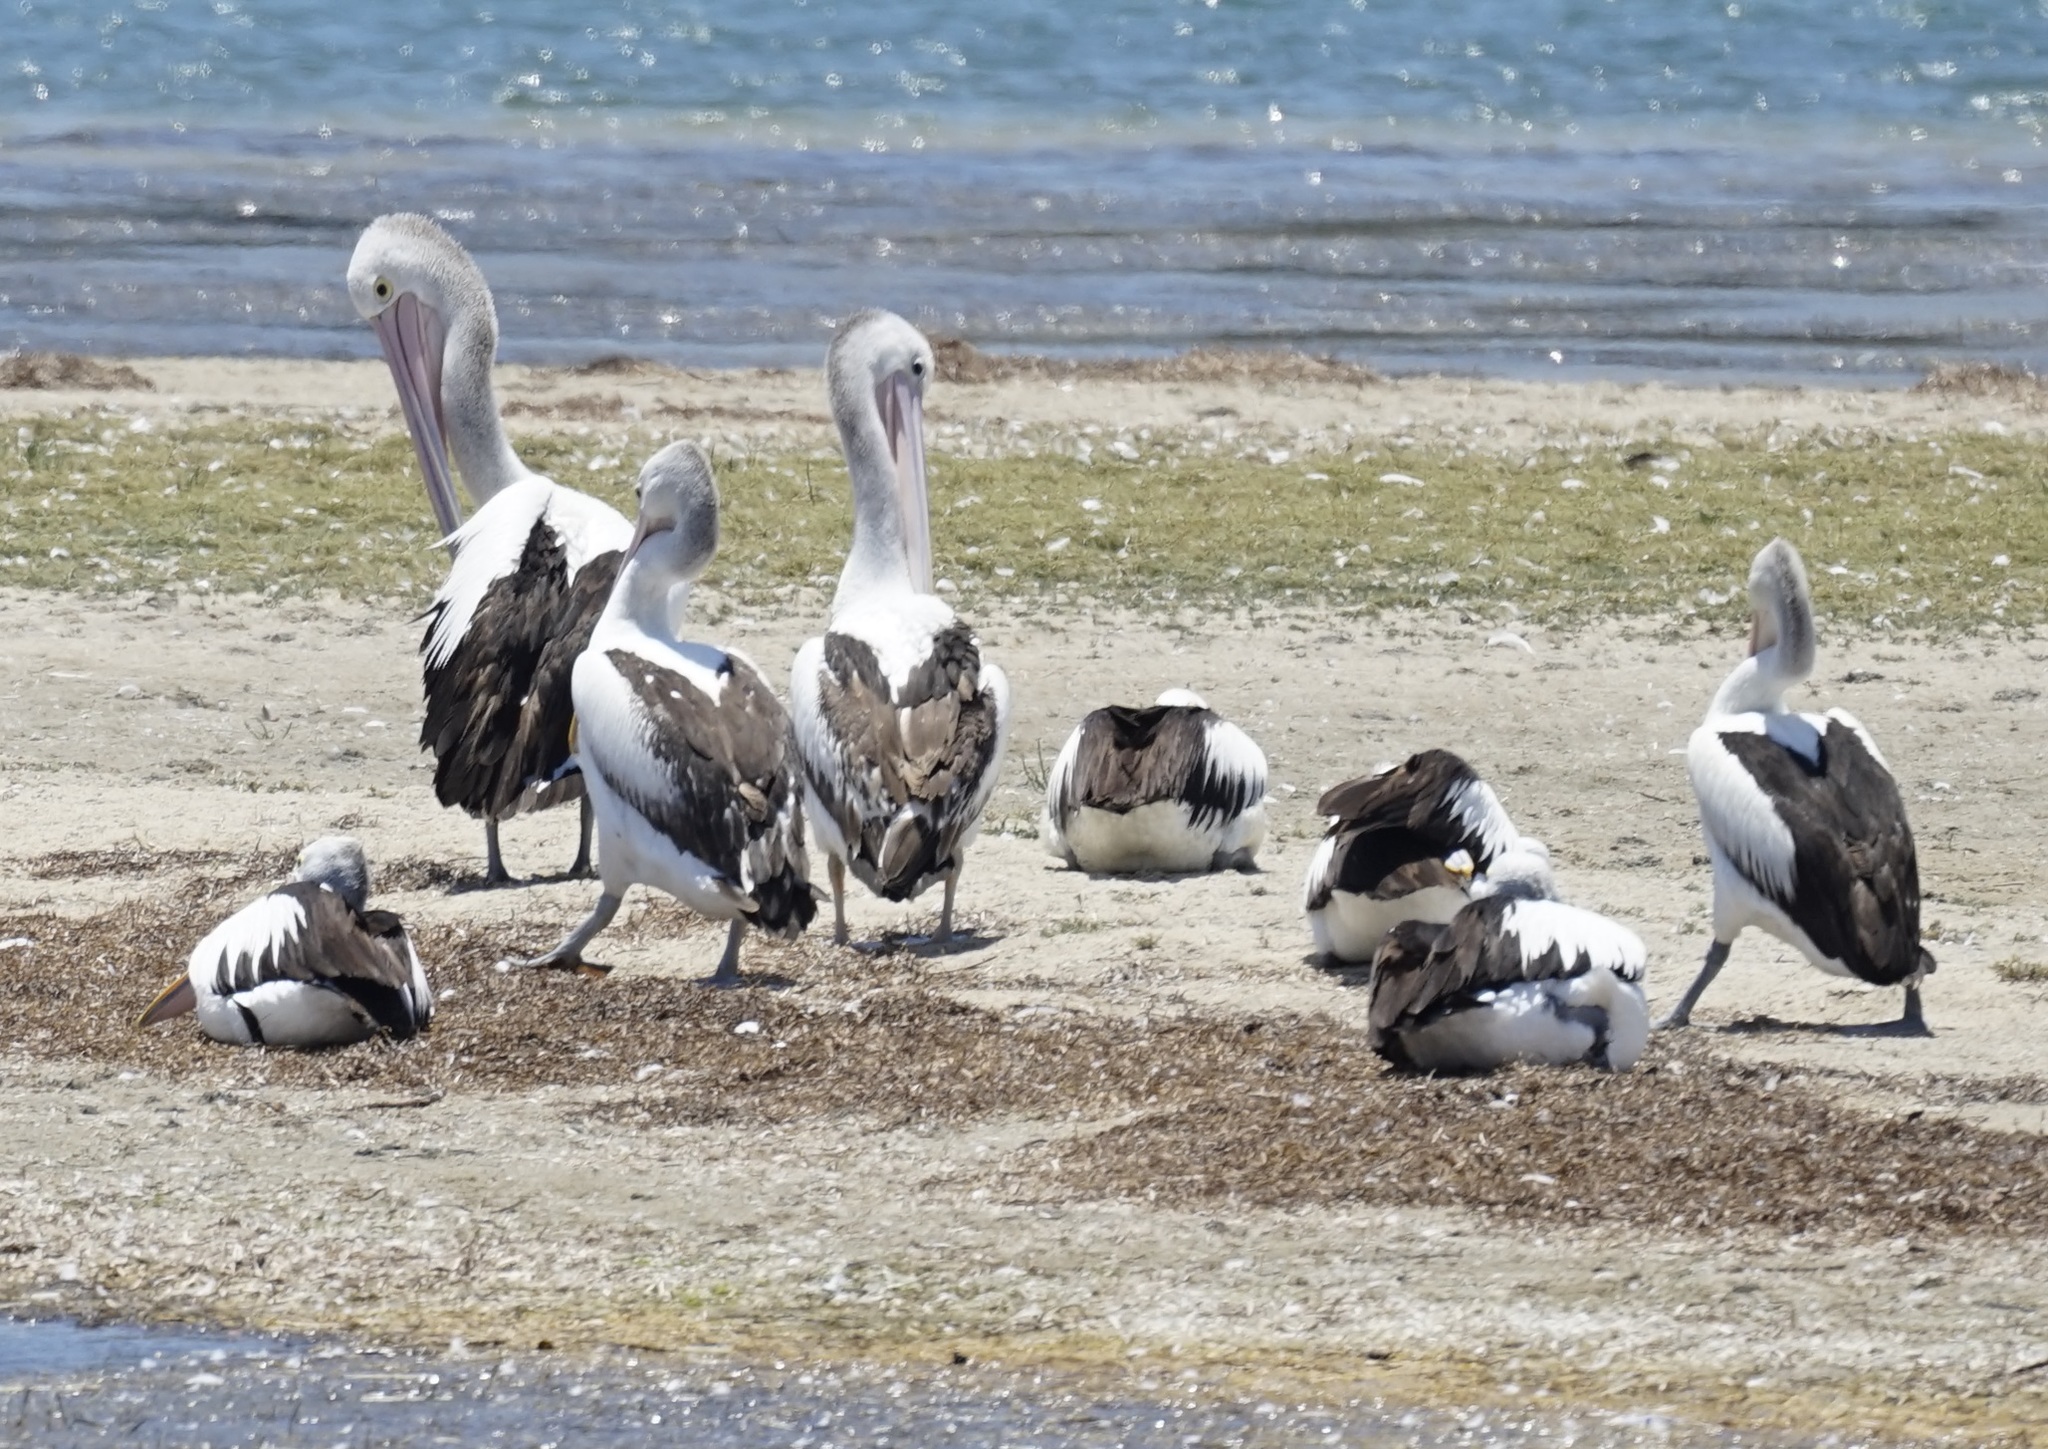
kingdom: Animalia
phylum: Chordata
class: Aves
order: Pelecaniformes
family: Pelecanidae
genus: Pelecanus
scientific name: Pelecanus conspicillatus
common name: Australian pelican
